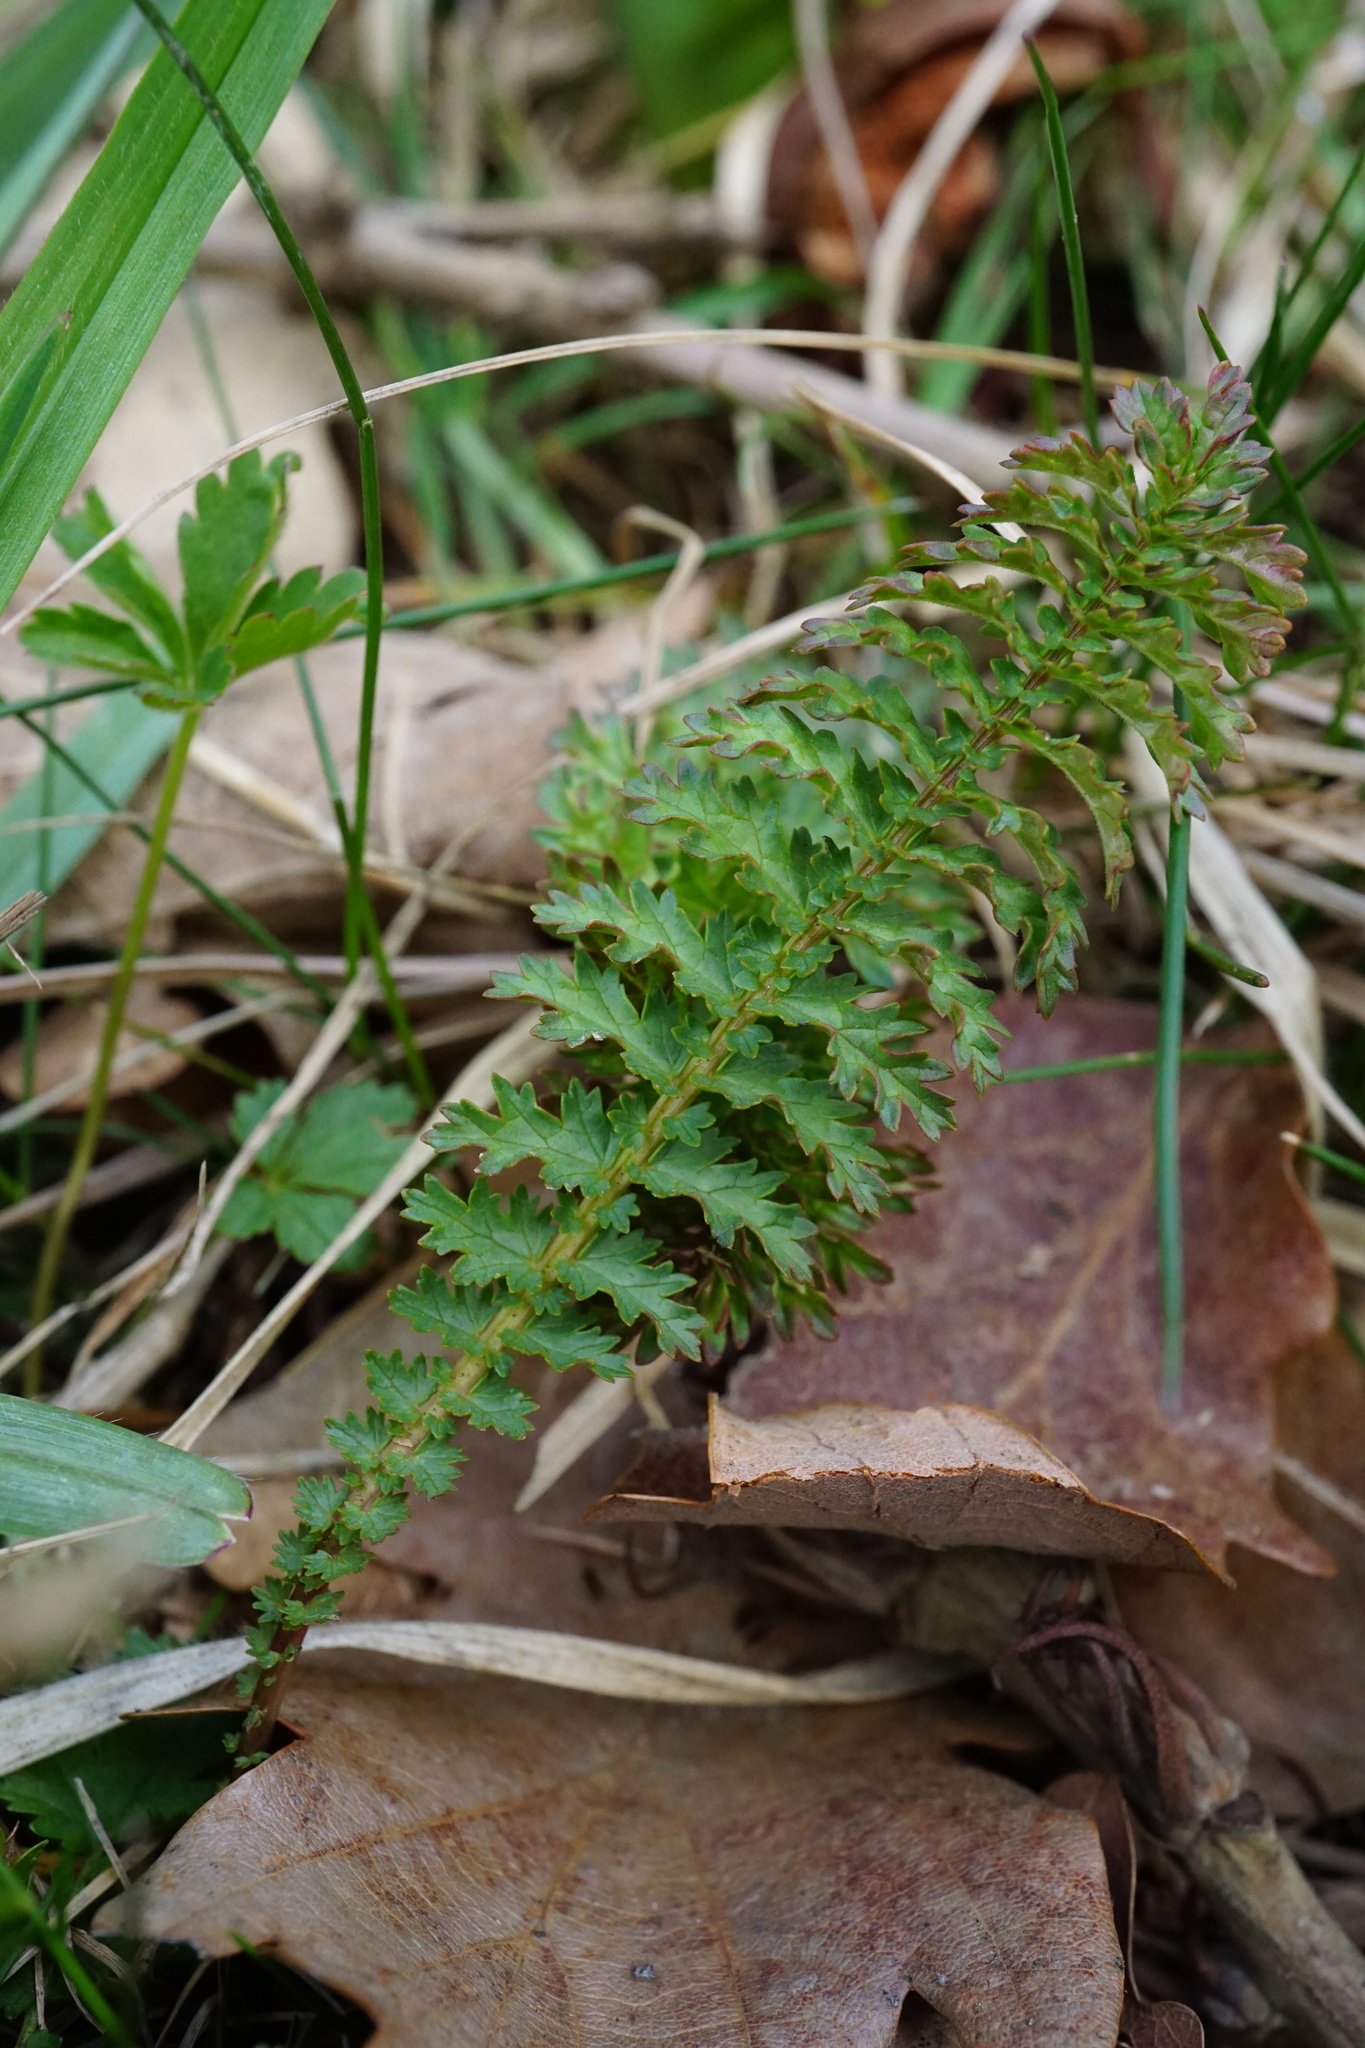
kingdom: Plantae
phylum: Tracheophyta
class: Magnoliopsida
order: Rosales
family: Rosaceae
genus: Filipendula
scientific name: Filipendula vulgaris
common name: Dropwort
